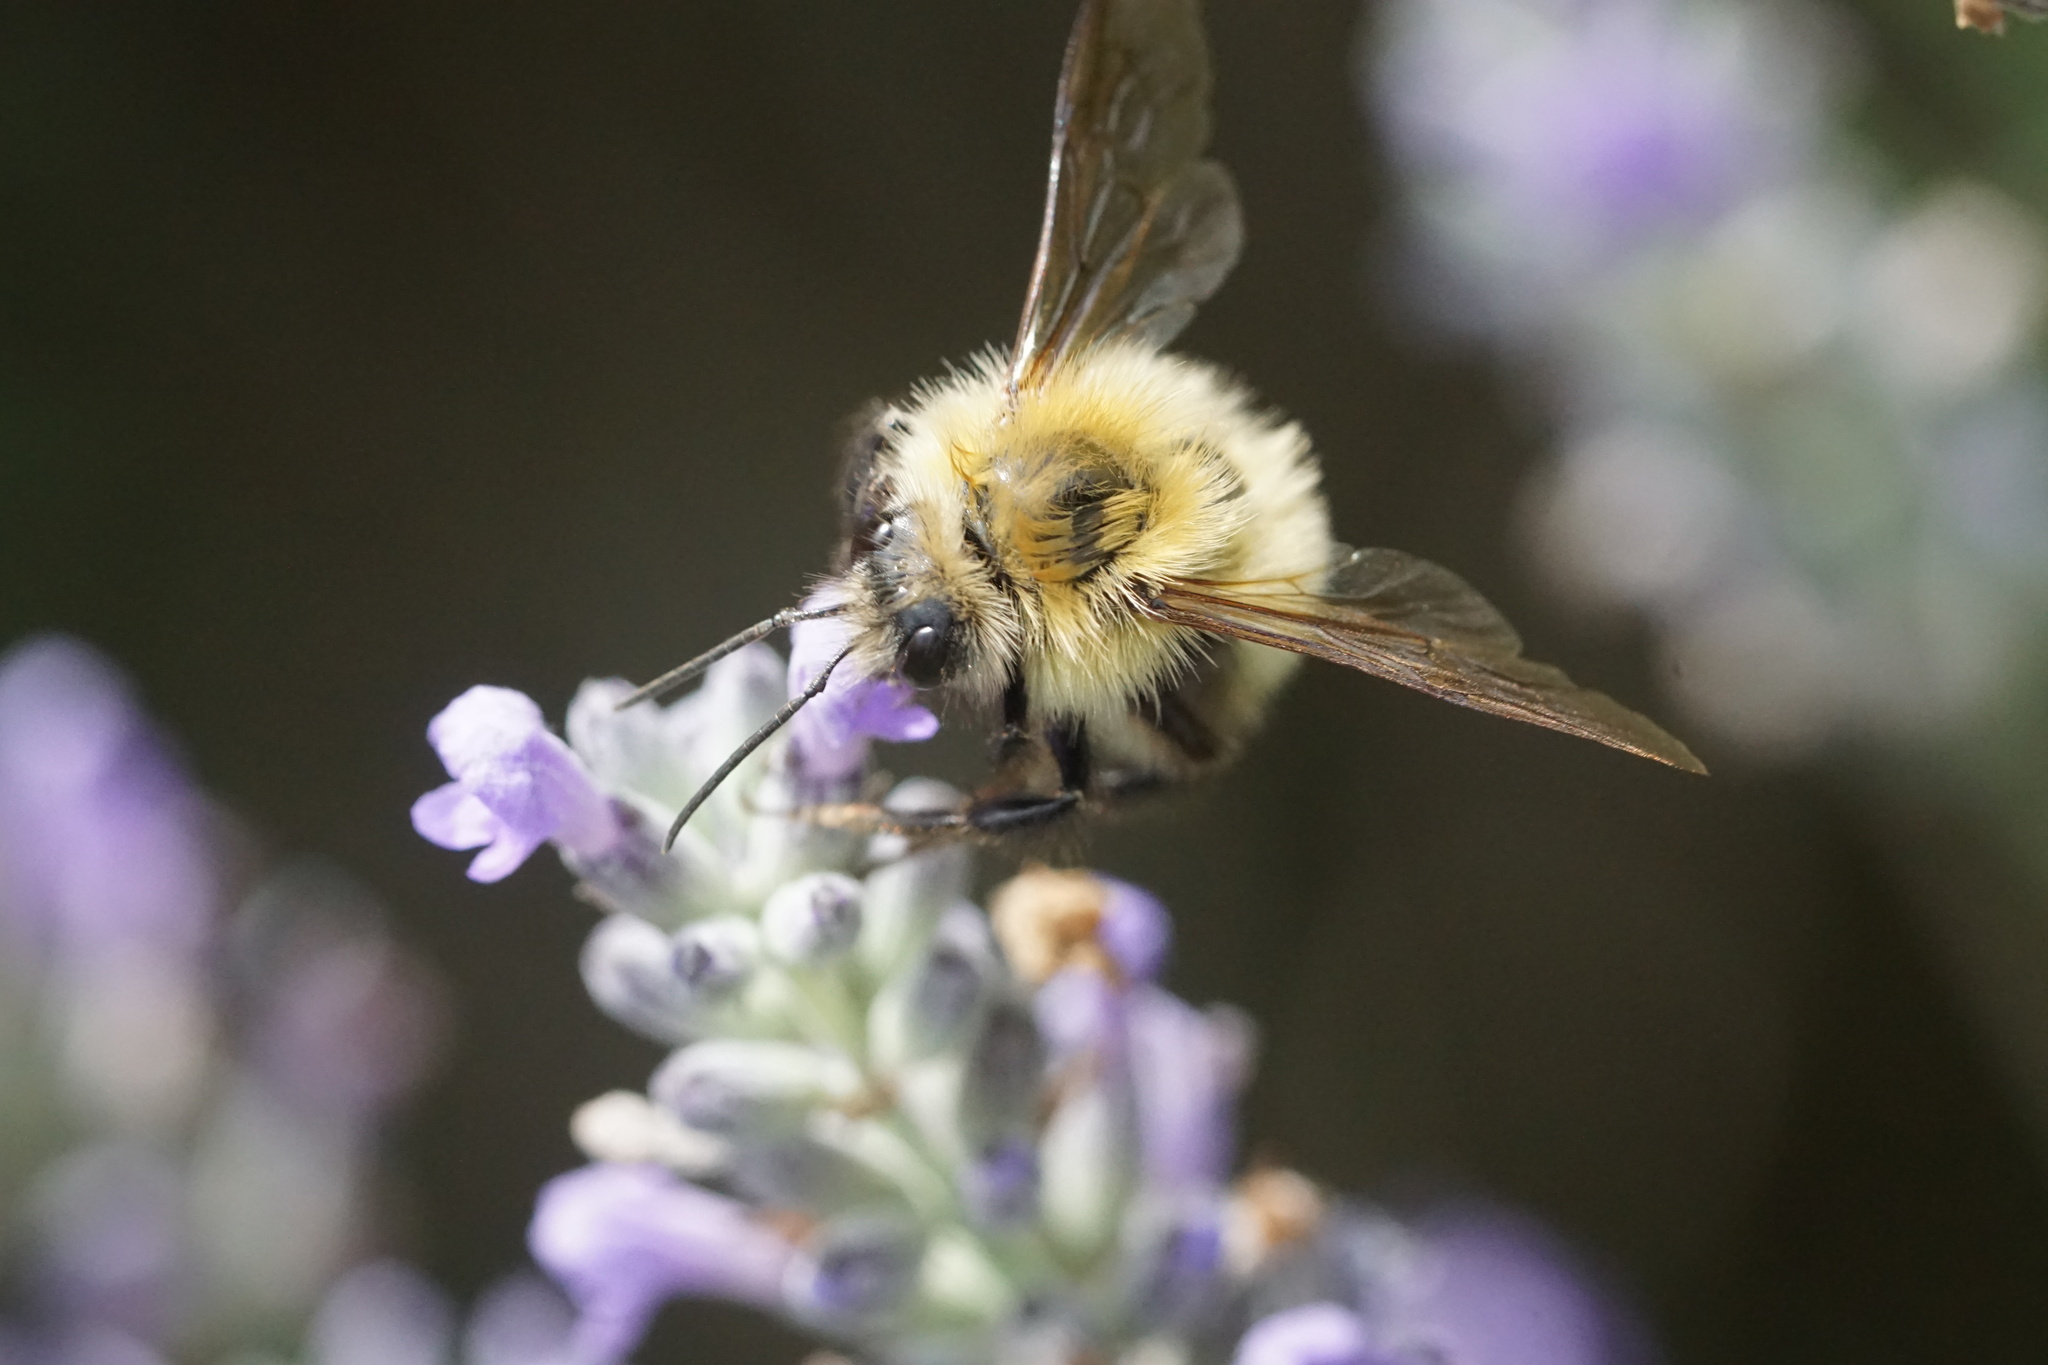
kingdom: Animalia
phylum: Arthropoda
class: Insecta
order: Hymenoptera
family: Apidae
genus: Bombus
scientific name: Bombus perplexus
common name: Confusing bumble bee
